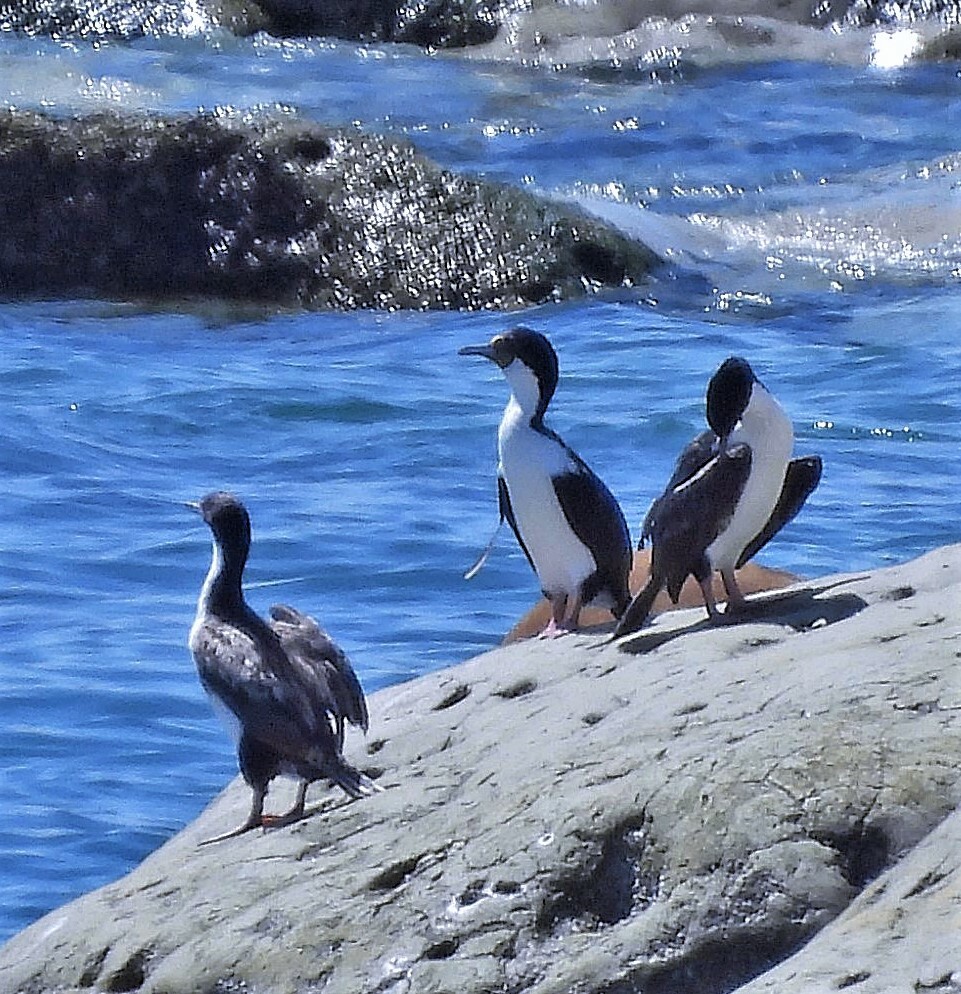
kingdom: Animalia
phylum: Chordata
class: Aves
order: Suliformes
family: Phalacrocoracidae
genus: Leucocarbo
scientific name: Leucocarbo atriceps
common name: Imperial shag
